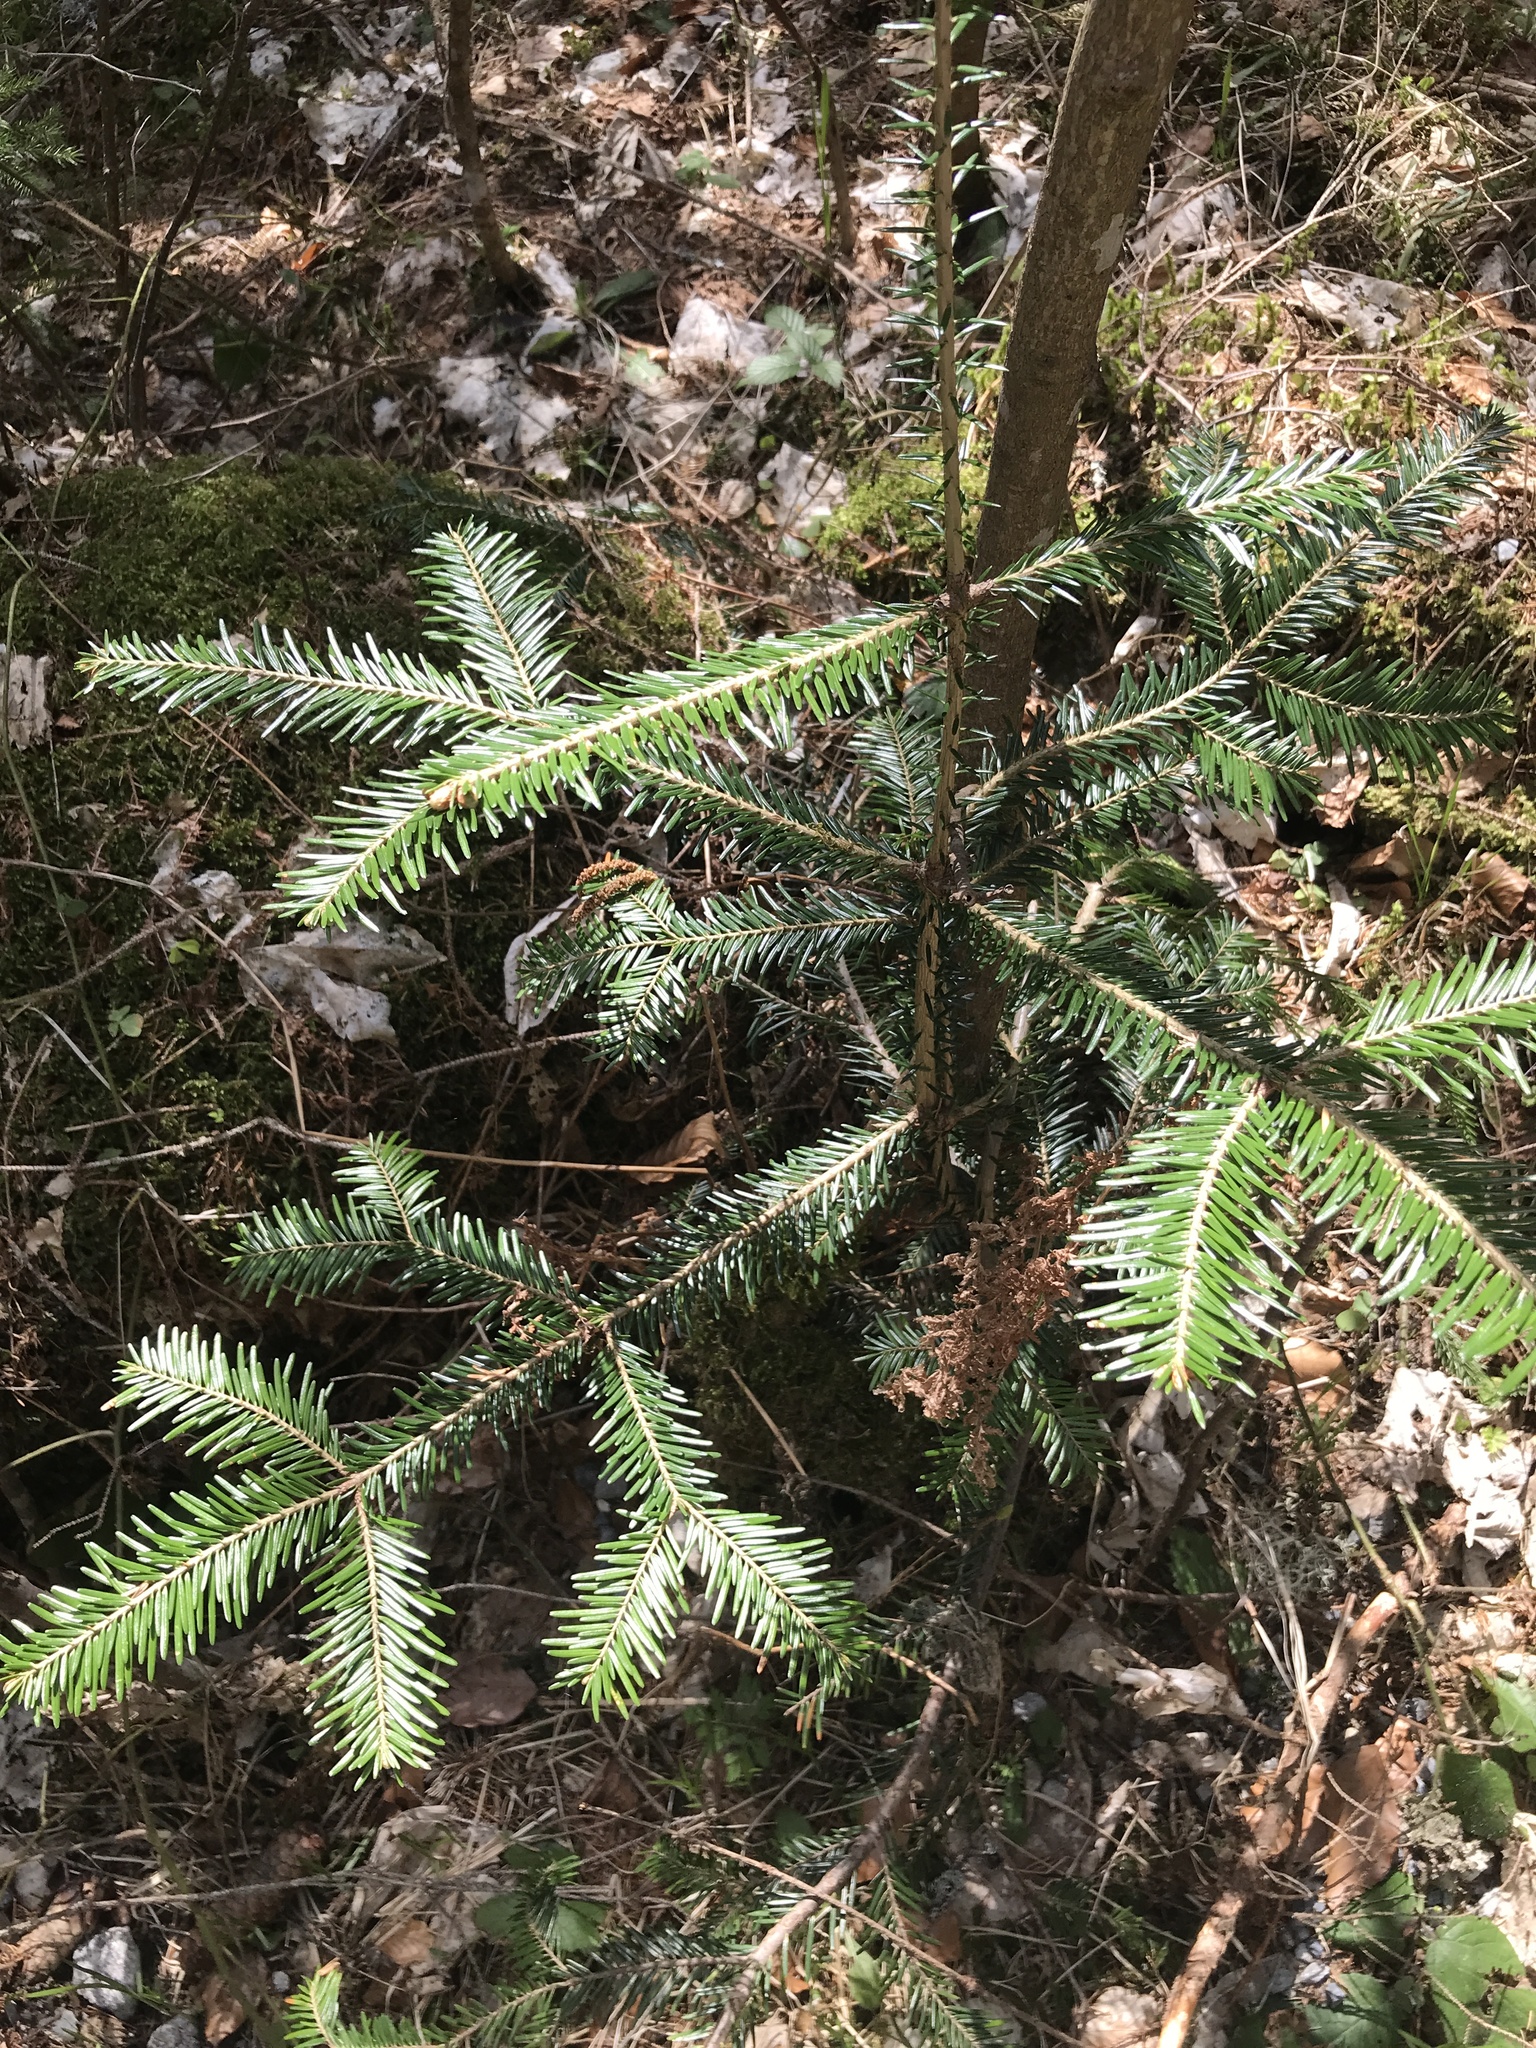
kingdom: Plantae
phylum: Tracheophyta
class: Pinopsida
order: Pinales
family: Pinaceae
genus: Abies
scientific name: Abies alba
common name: Silver fir
